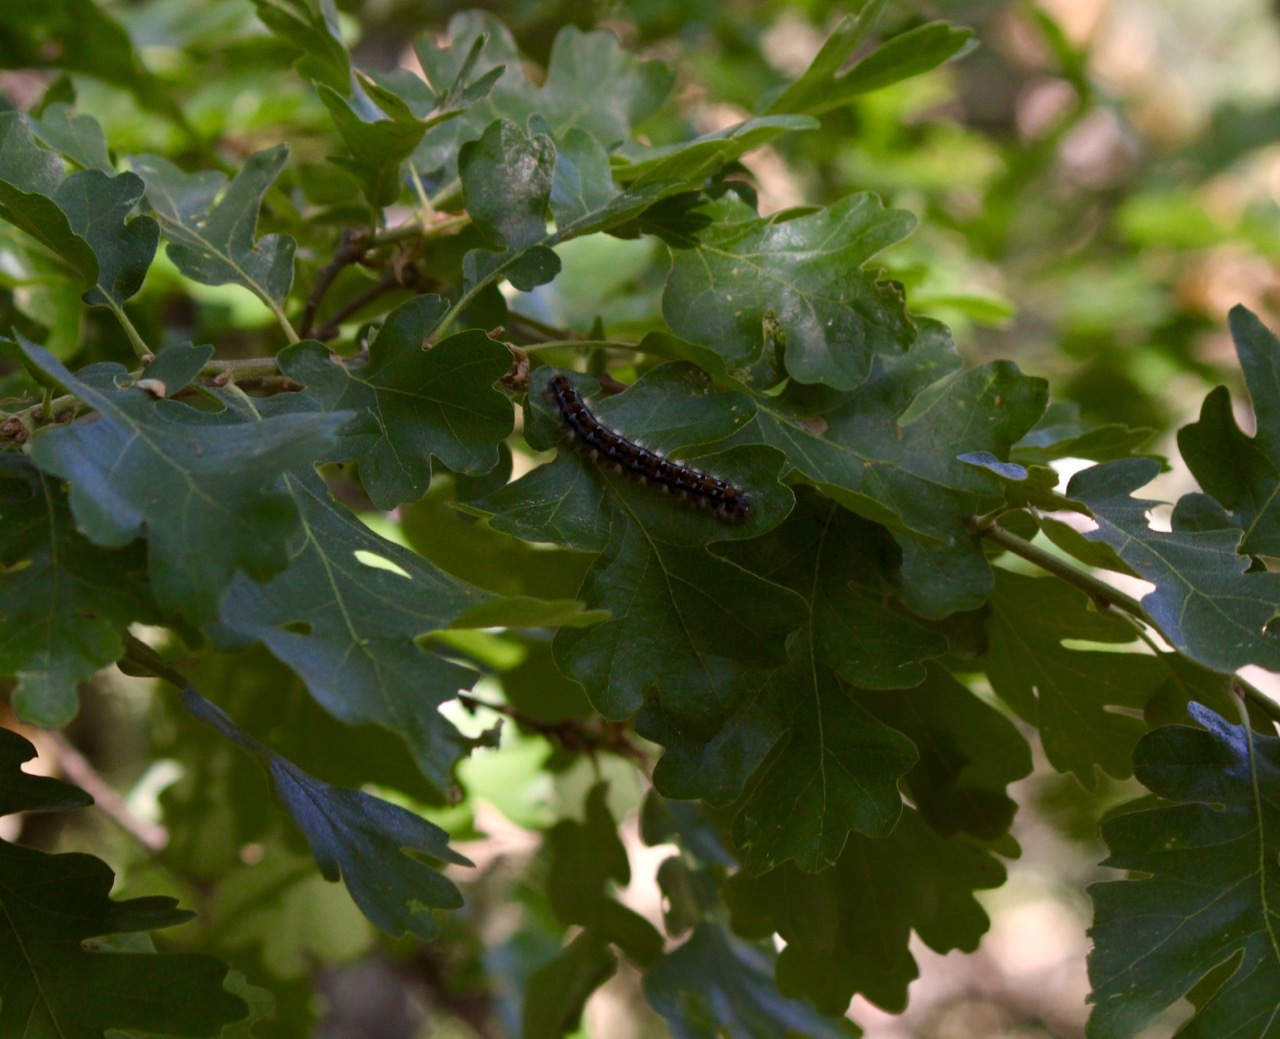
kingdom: Animalia
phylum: Arthropoda
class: Insecta
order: Lepidoptera
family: Lasiocampidae
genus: Malacosoma
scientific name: Malacosoma constricta
